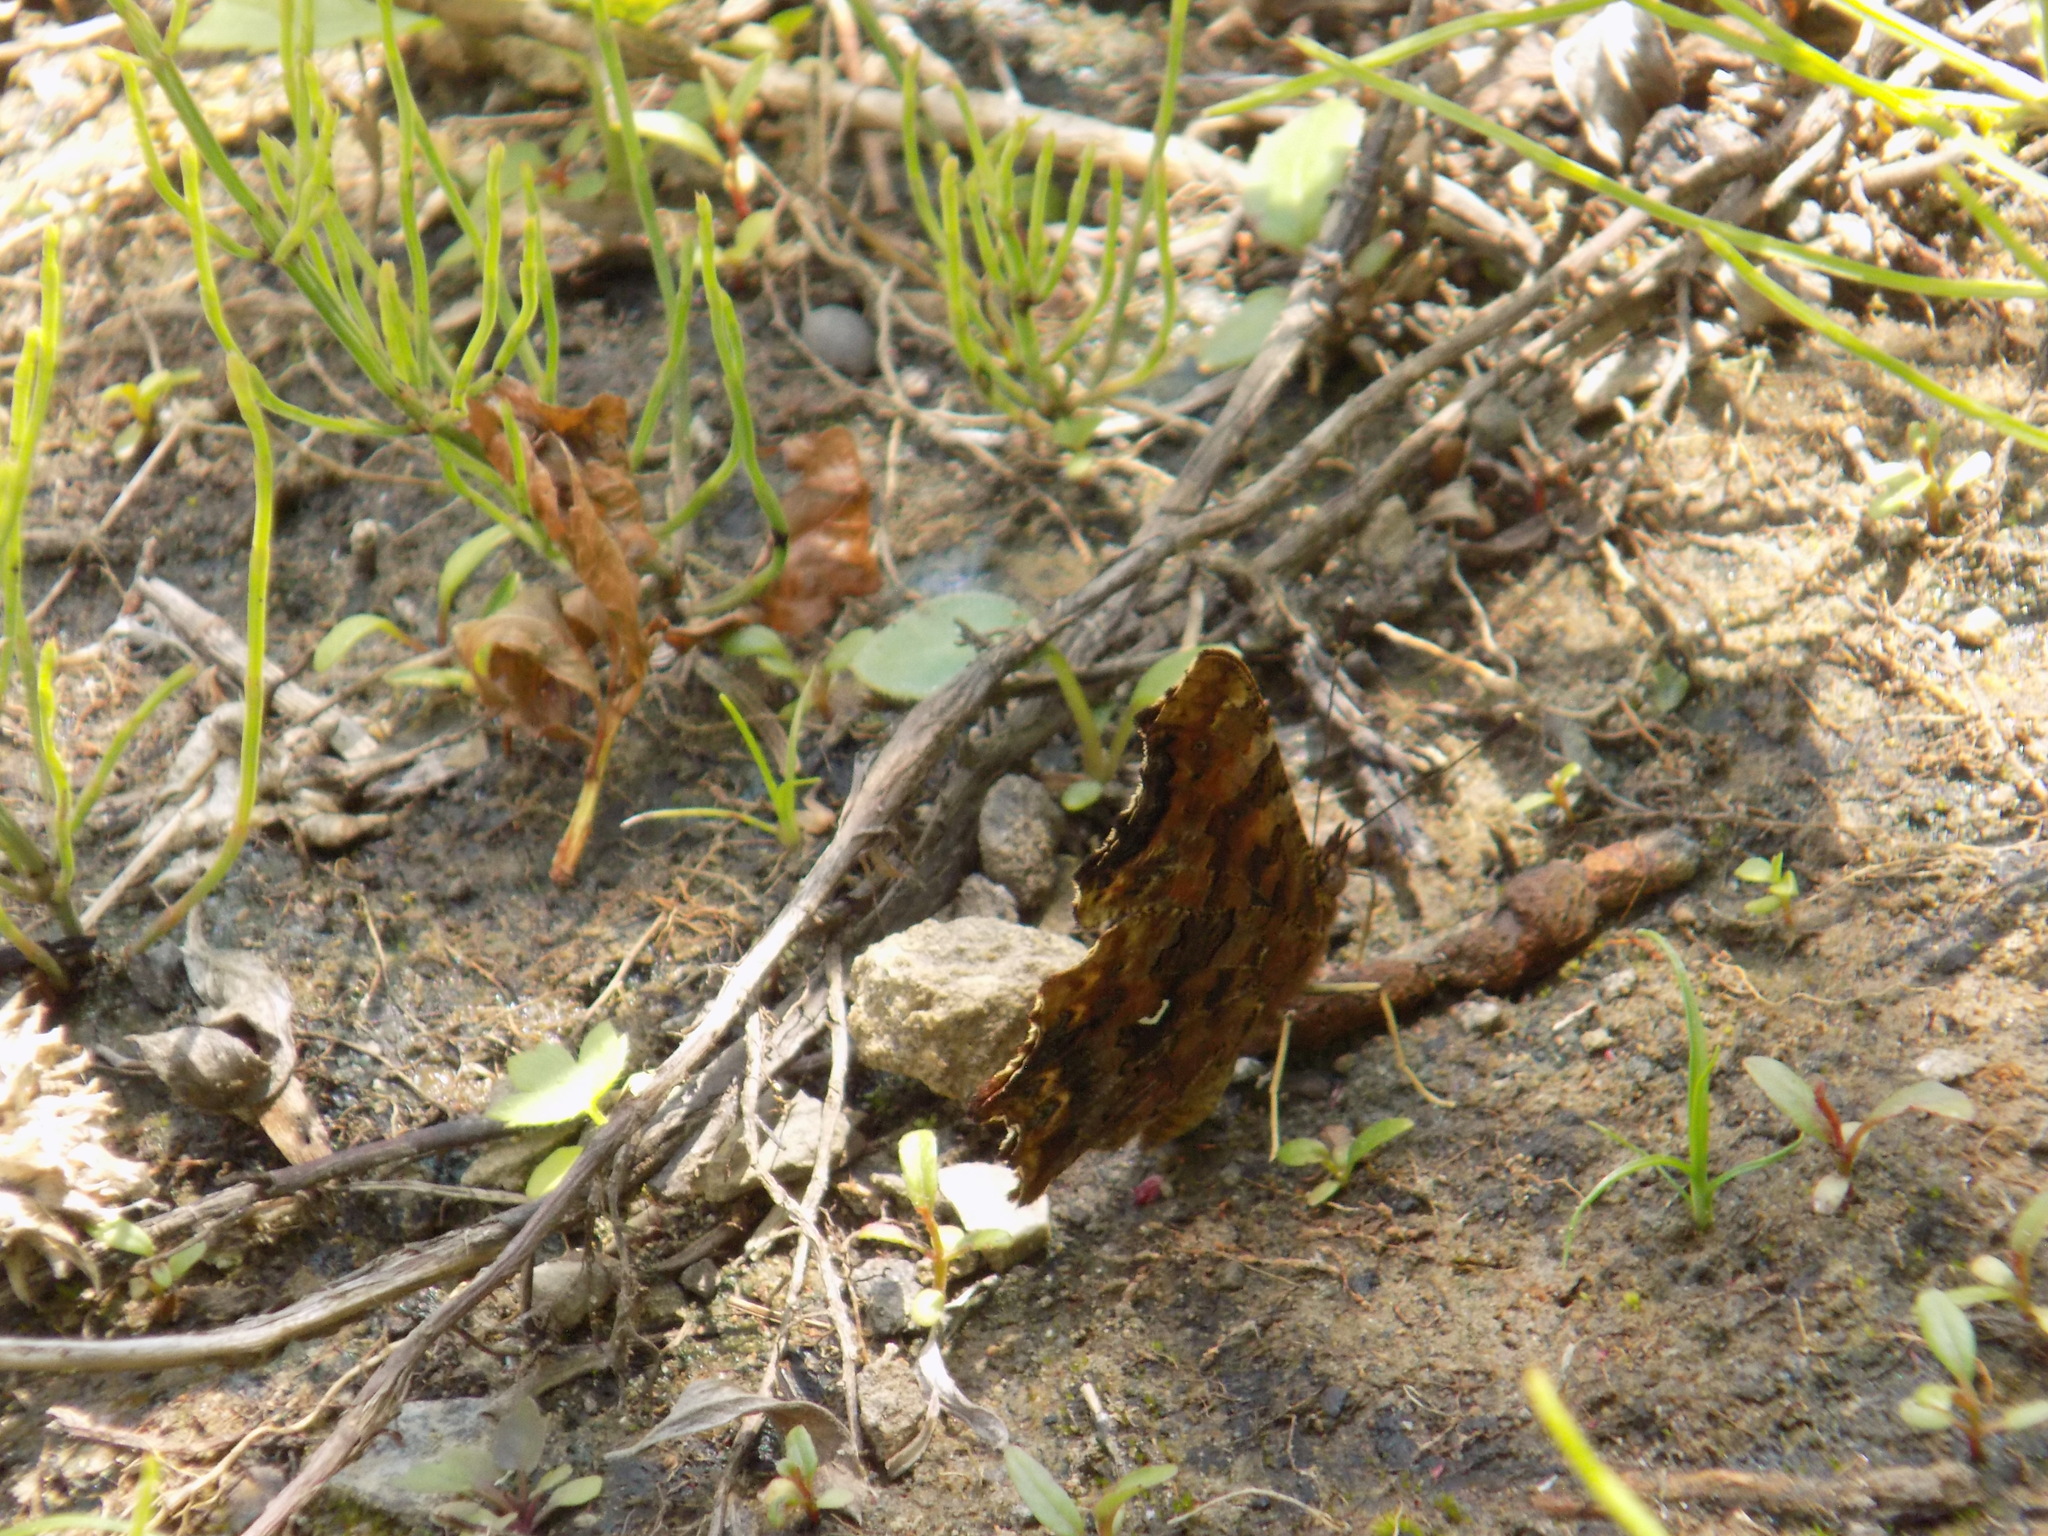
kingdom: Animalia
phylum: Arthropoda
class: Insecta
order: Lepidoptera
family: Nymphalidae
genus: Polygonia
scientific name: Polygonia c-album
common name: Comma
